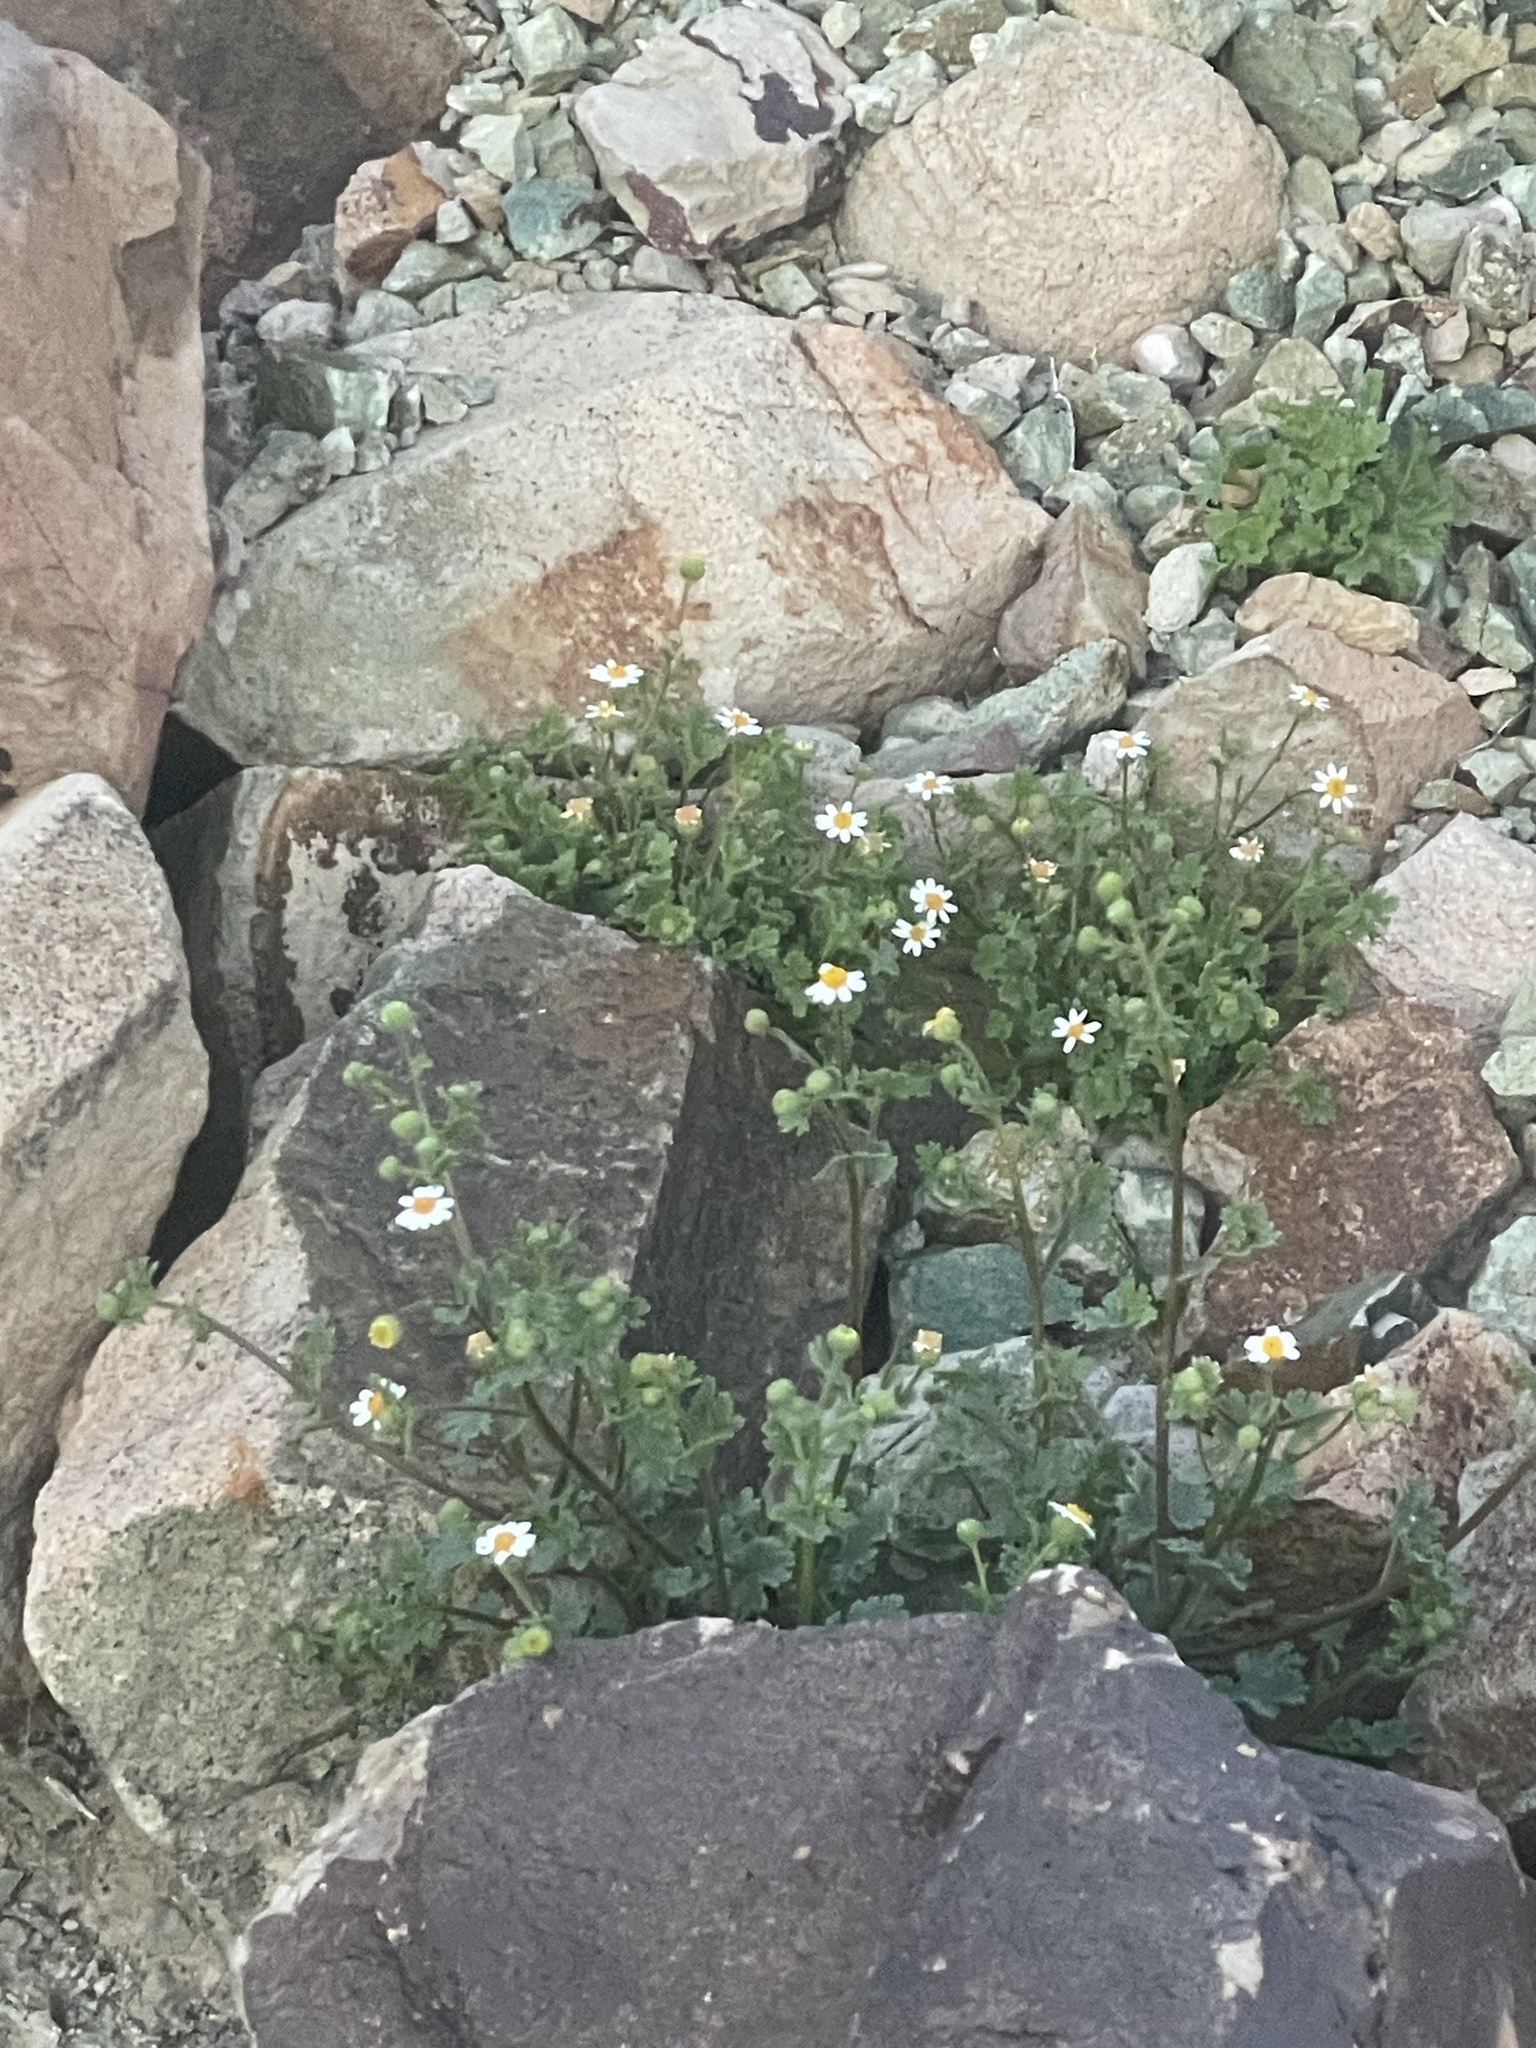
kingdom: Plantae
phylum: Tracheophyta
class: Magnoliopsida
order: Asterales
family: Asteraceae
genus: Laphamia
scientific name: Laphamia emoryi
